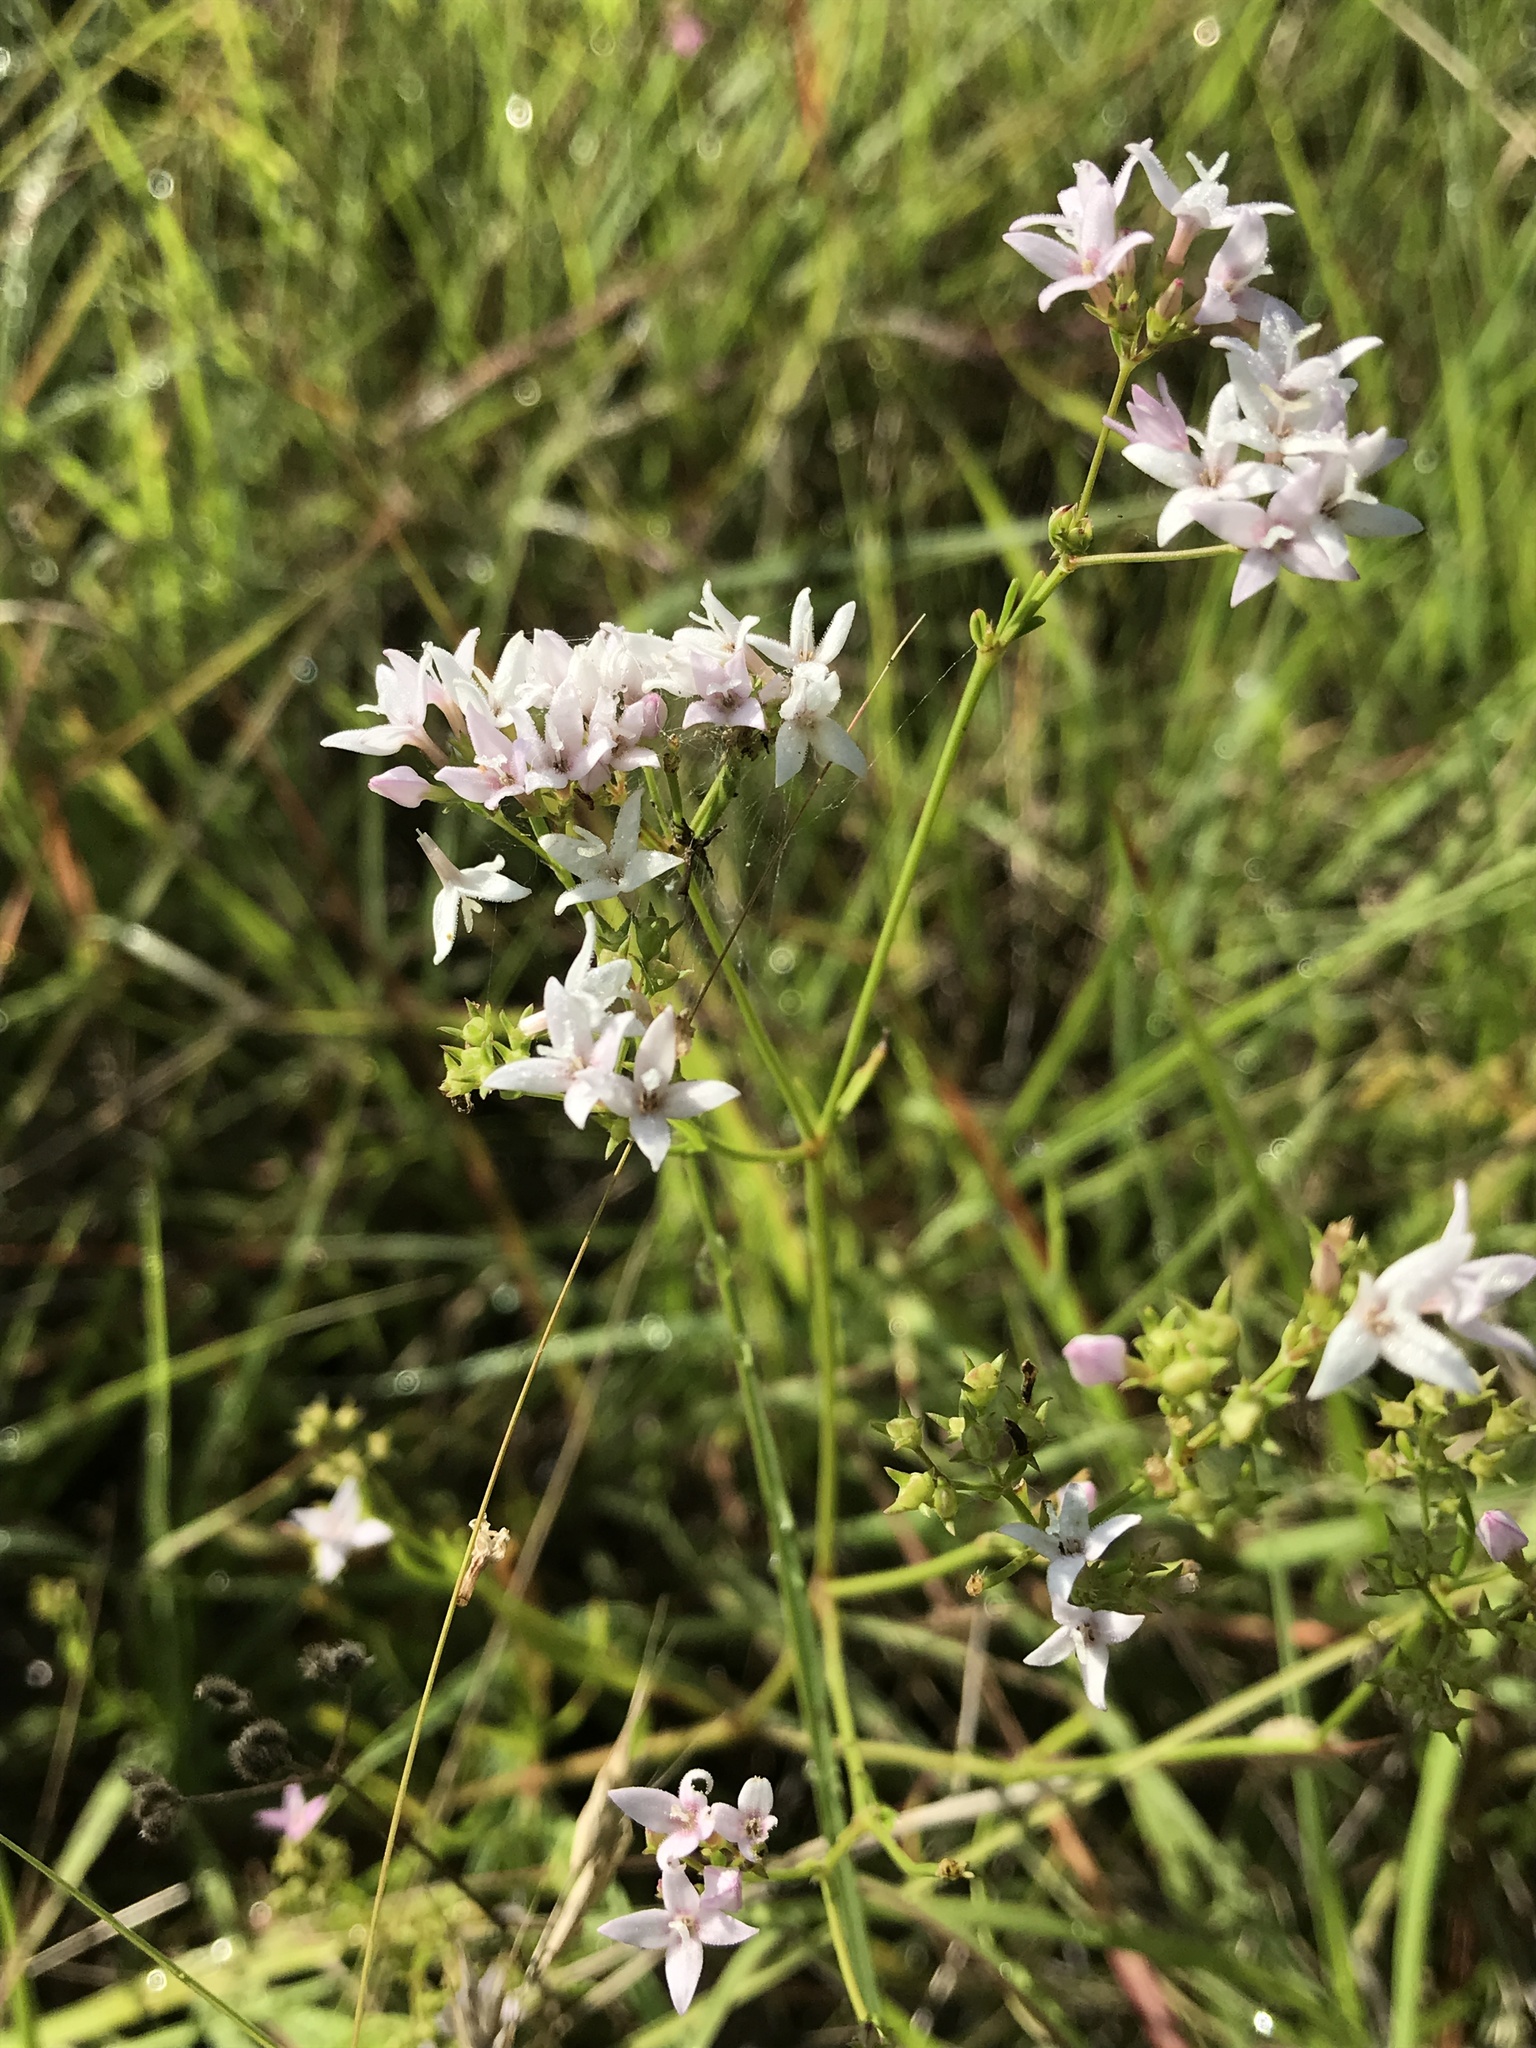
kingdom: Plantae
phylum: Tracheophyta
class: Magnoliopsida
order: Gentianales
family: Rubiaceae
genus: Stenaria
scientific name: Stenaria nigricans
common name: Diamondflowers
